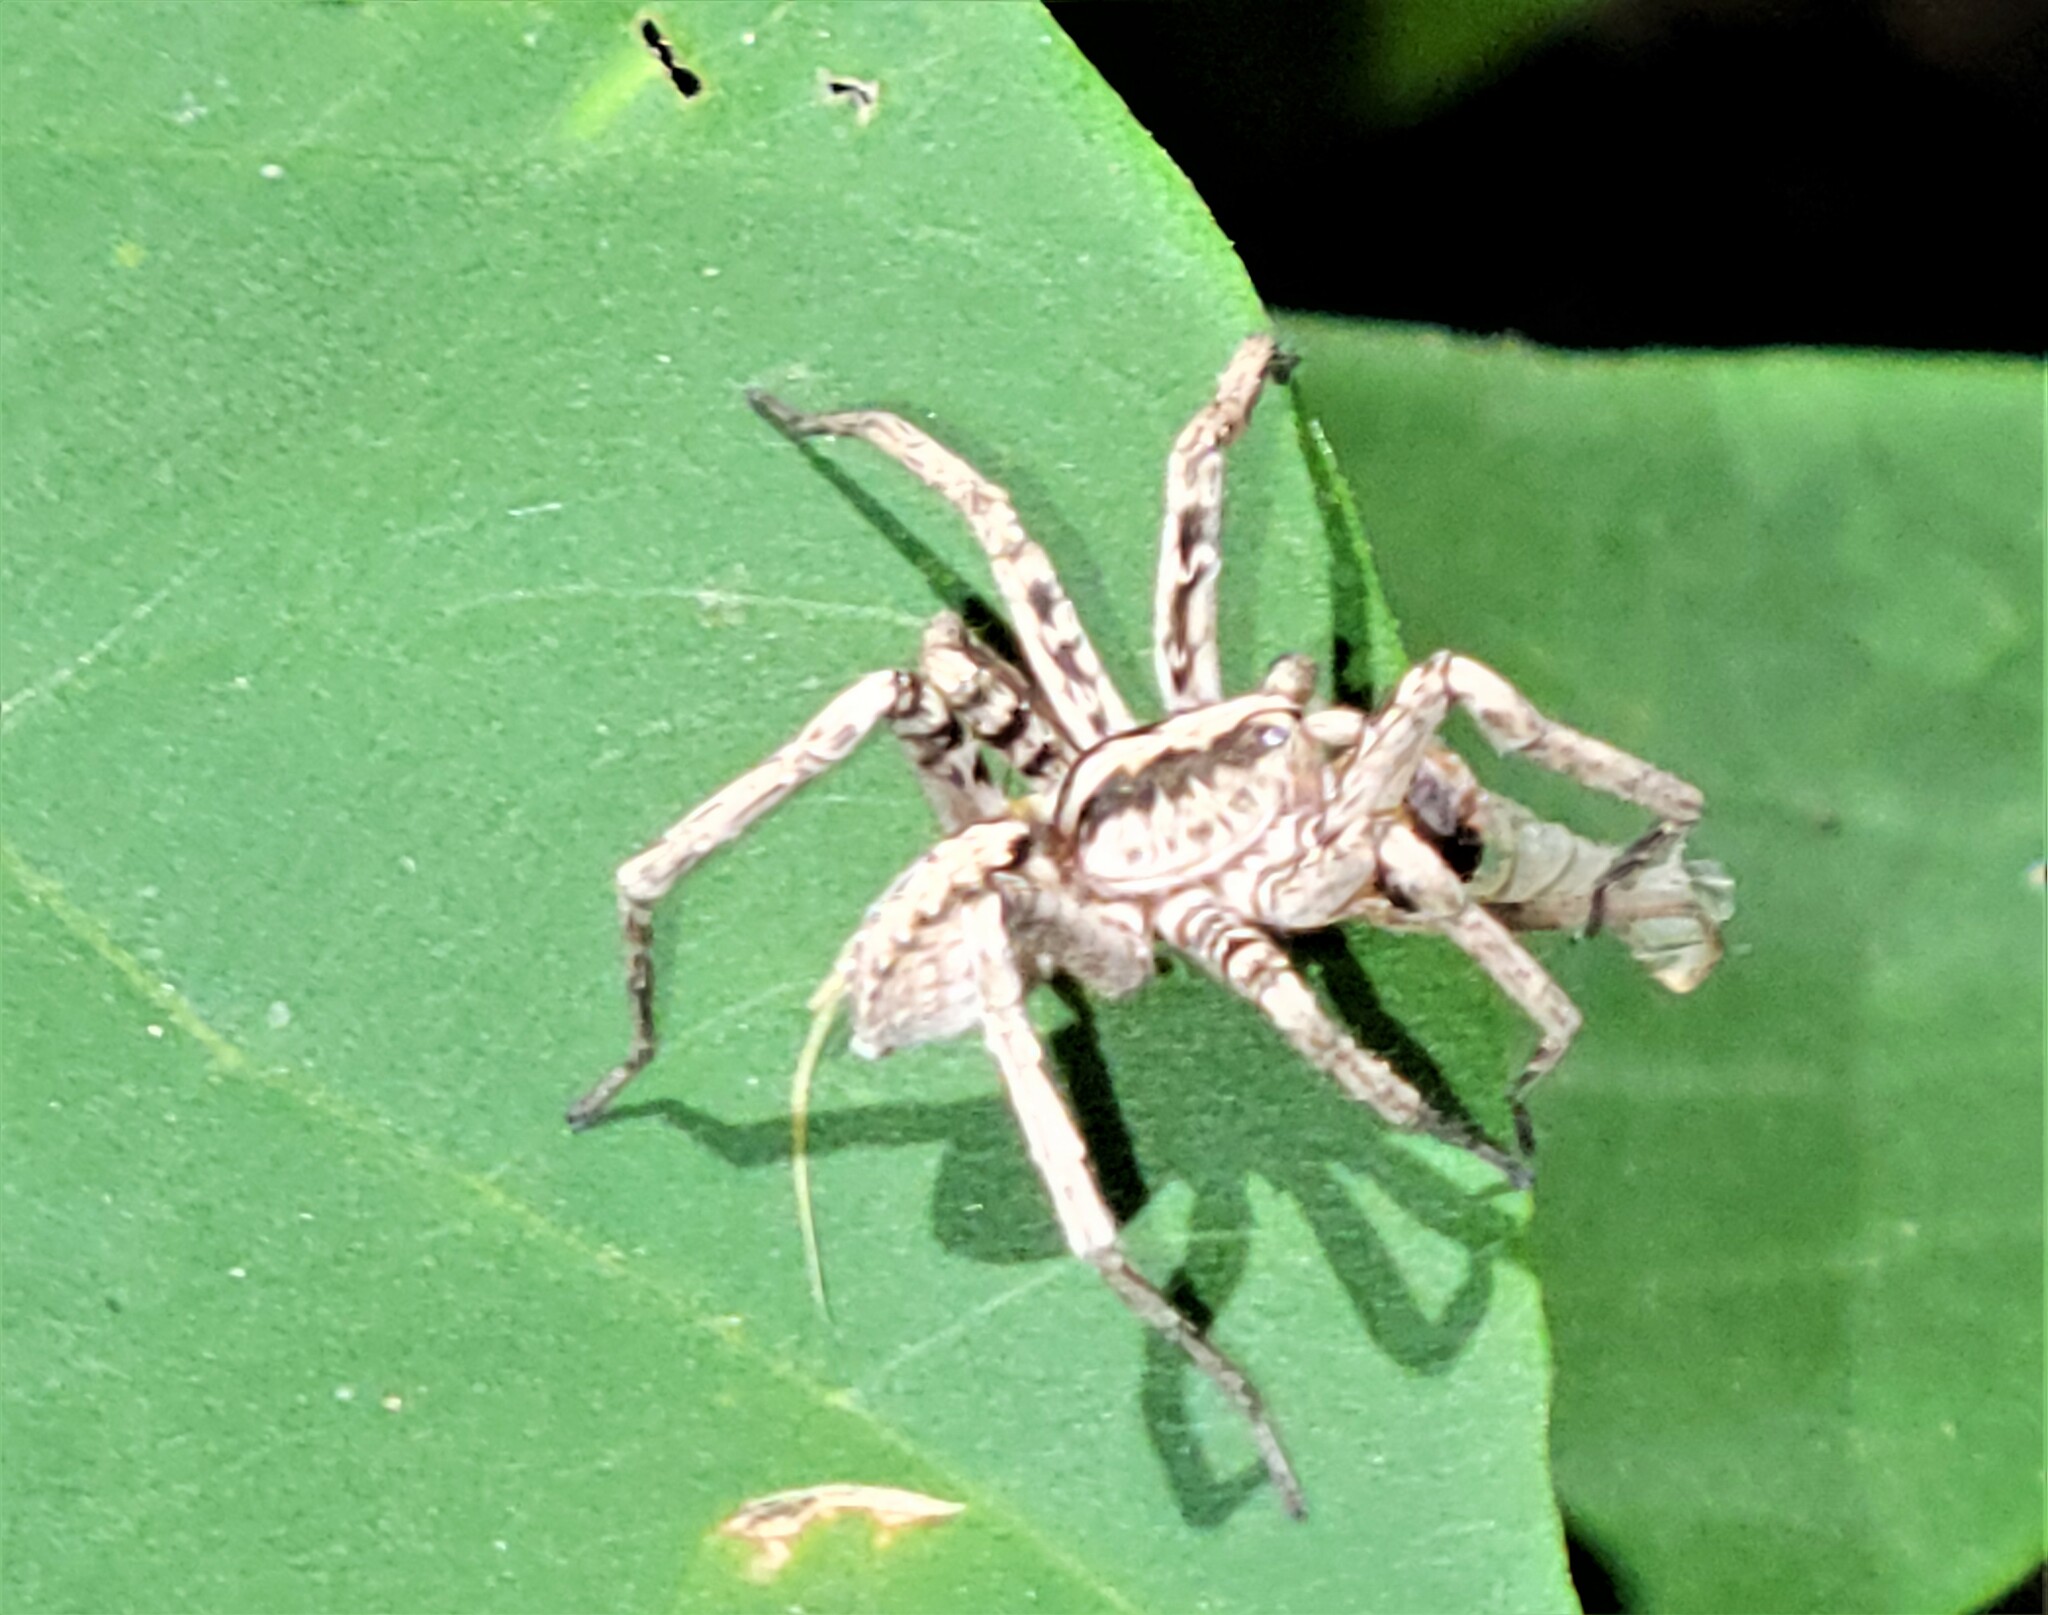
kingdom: Animalia
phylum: Arthropoda
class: Arachnida
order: Araneae
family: Ctenidae
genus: Leptoctenus
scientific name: Leptoctenus byrrhus
